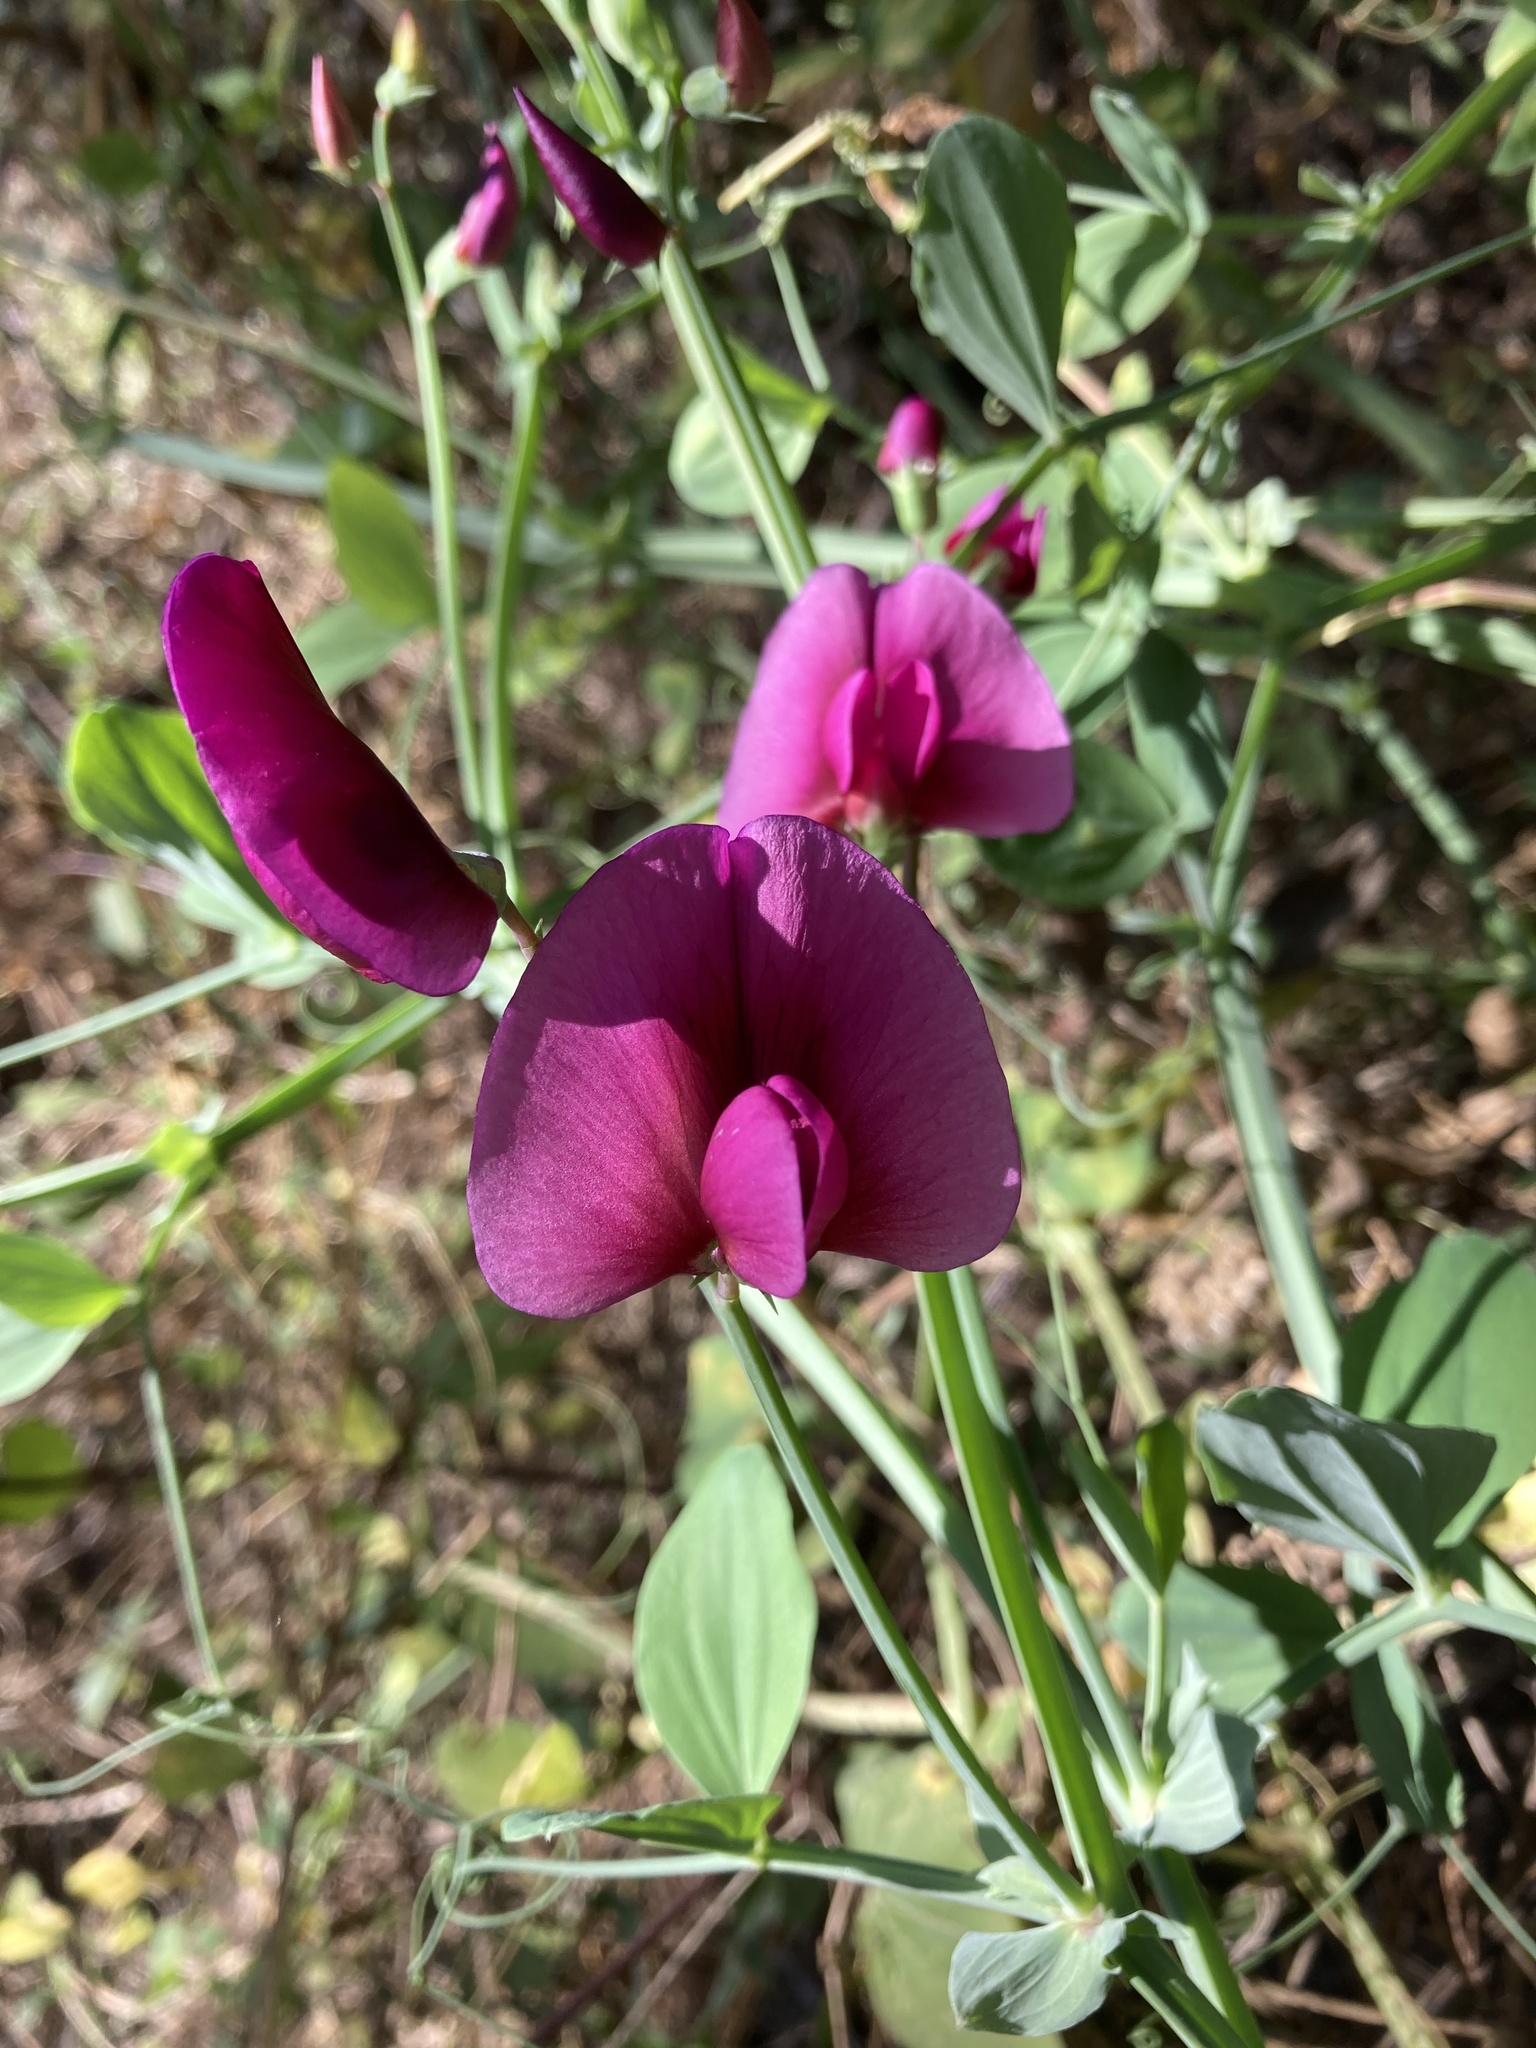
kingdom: Plantae
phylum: Tracheophyta
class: Magnoliopsida
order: Fabales
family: Fabaceae
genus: Lathyrus
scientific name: Lathyrus tingitanus
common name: Tangier pea
